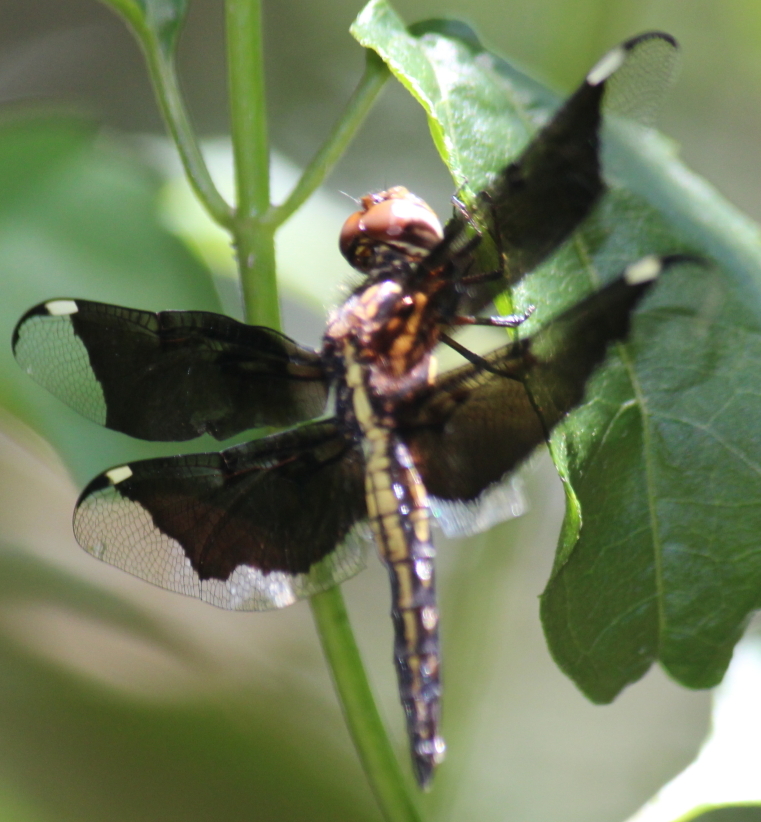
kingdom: Animalia
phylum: Arthropoda
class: Insecta
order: Odonata
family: Libellulidae
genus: Palpopleura
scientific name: Palpopleura lucia
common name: Lucia widow
